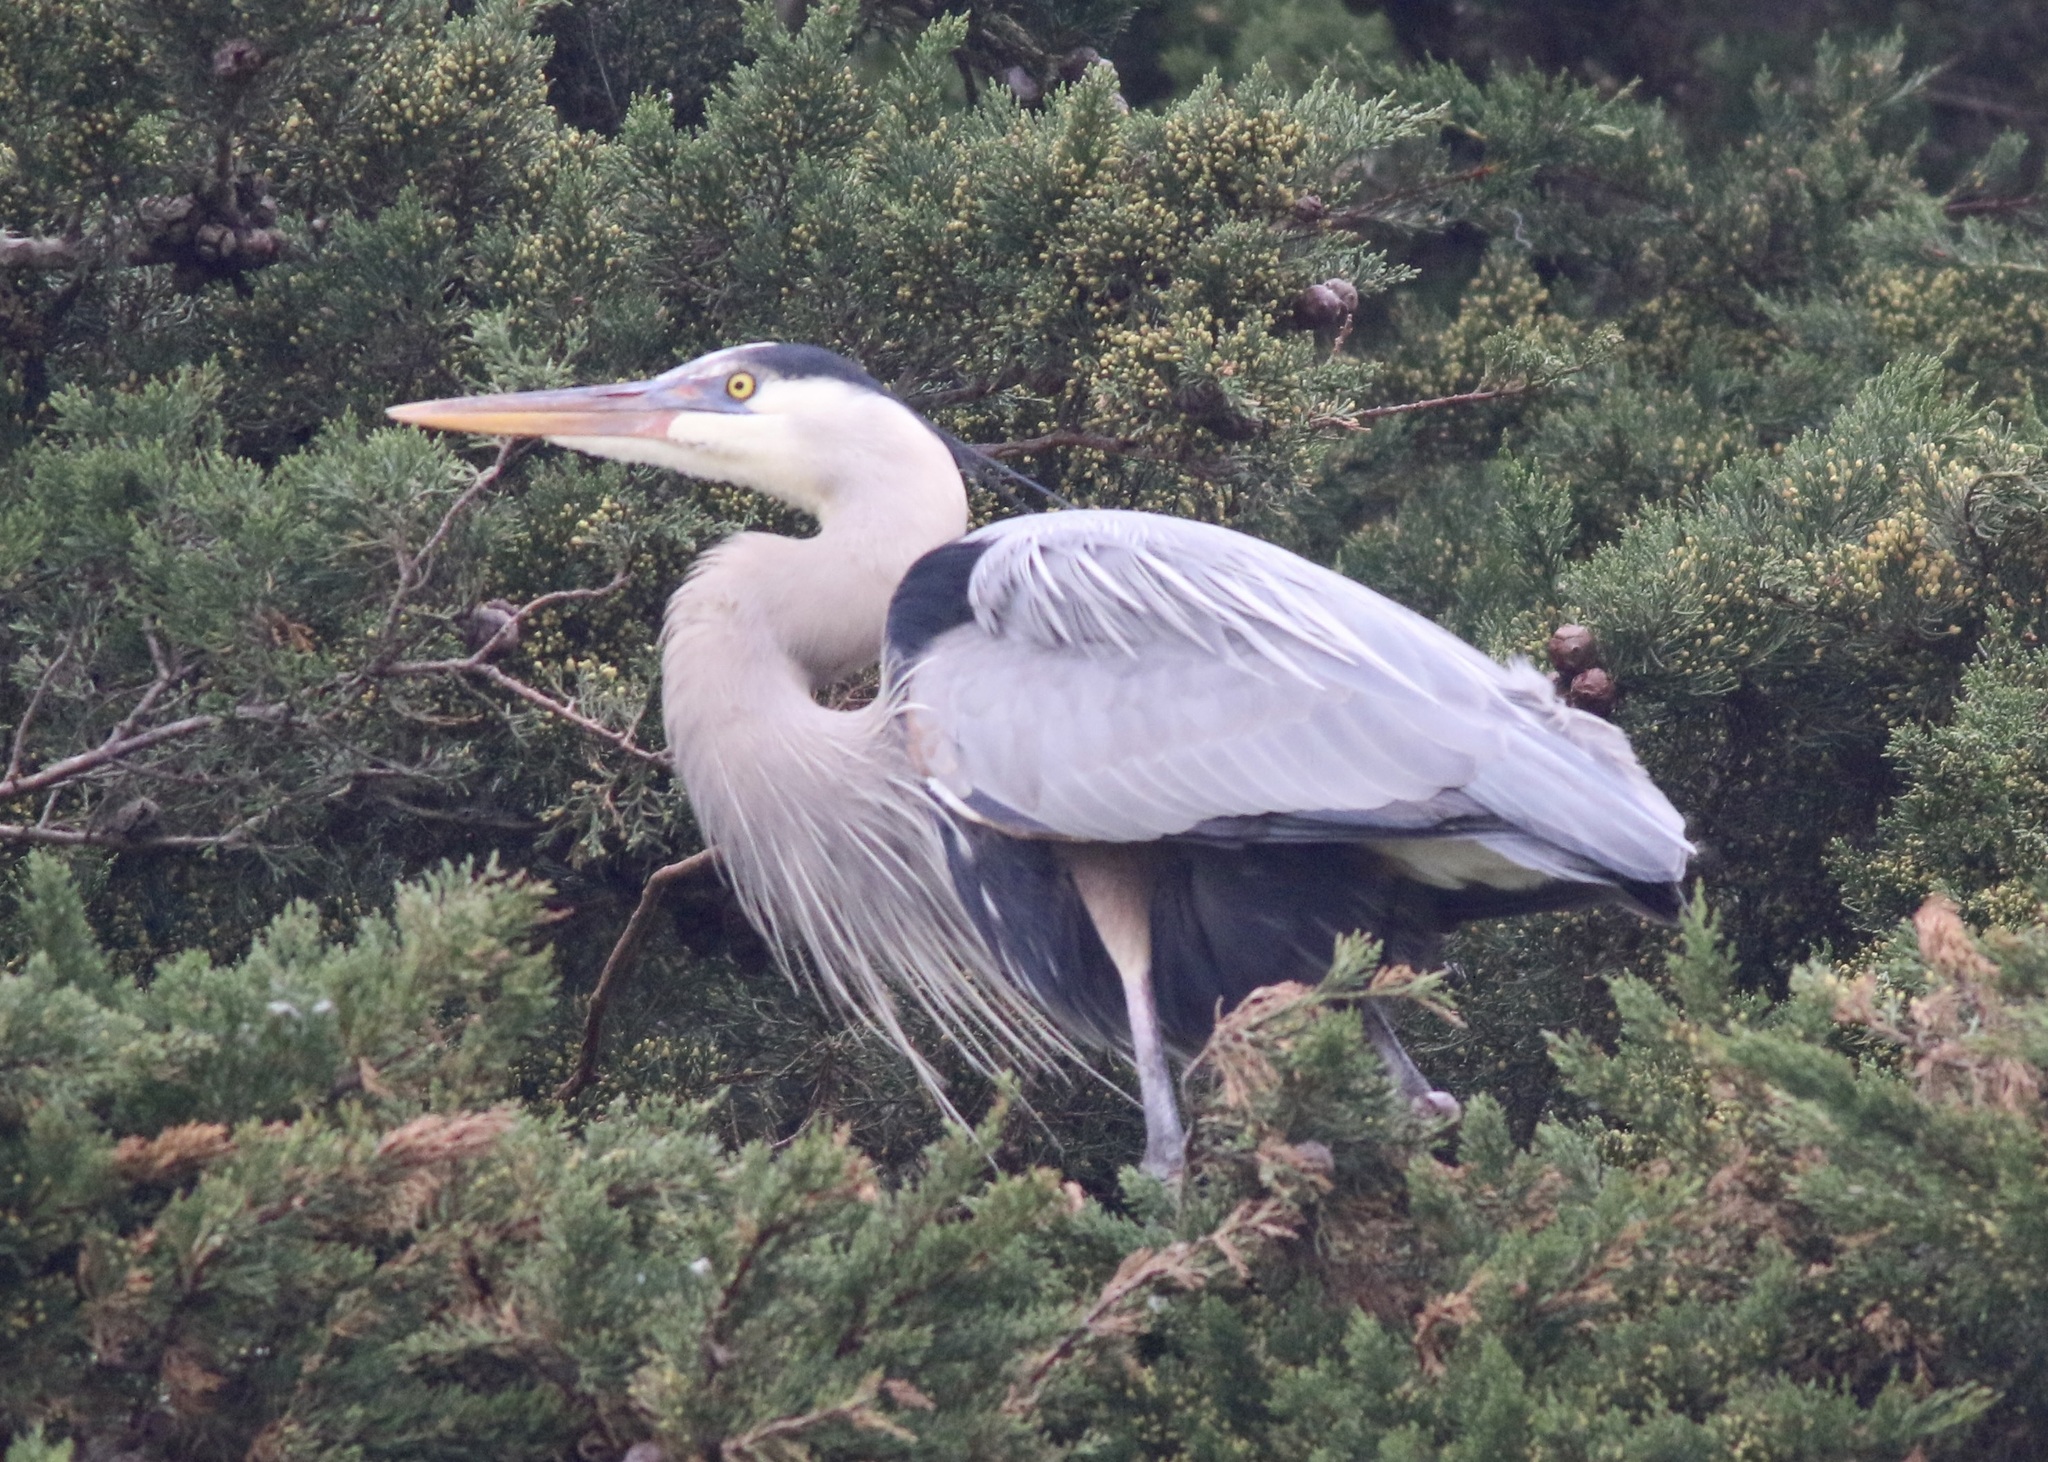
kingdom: Animalia
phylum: Chordata
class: Aves
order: Pelecaniformes
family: Ardeidae
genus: Ardea
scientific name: Ardea herodias
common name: Great blue heron
